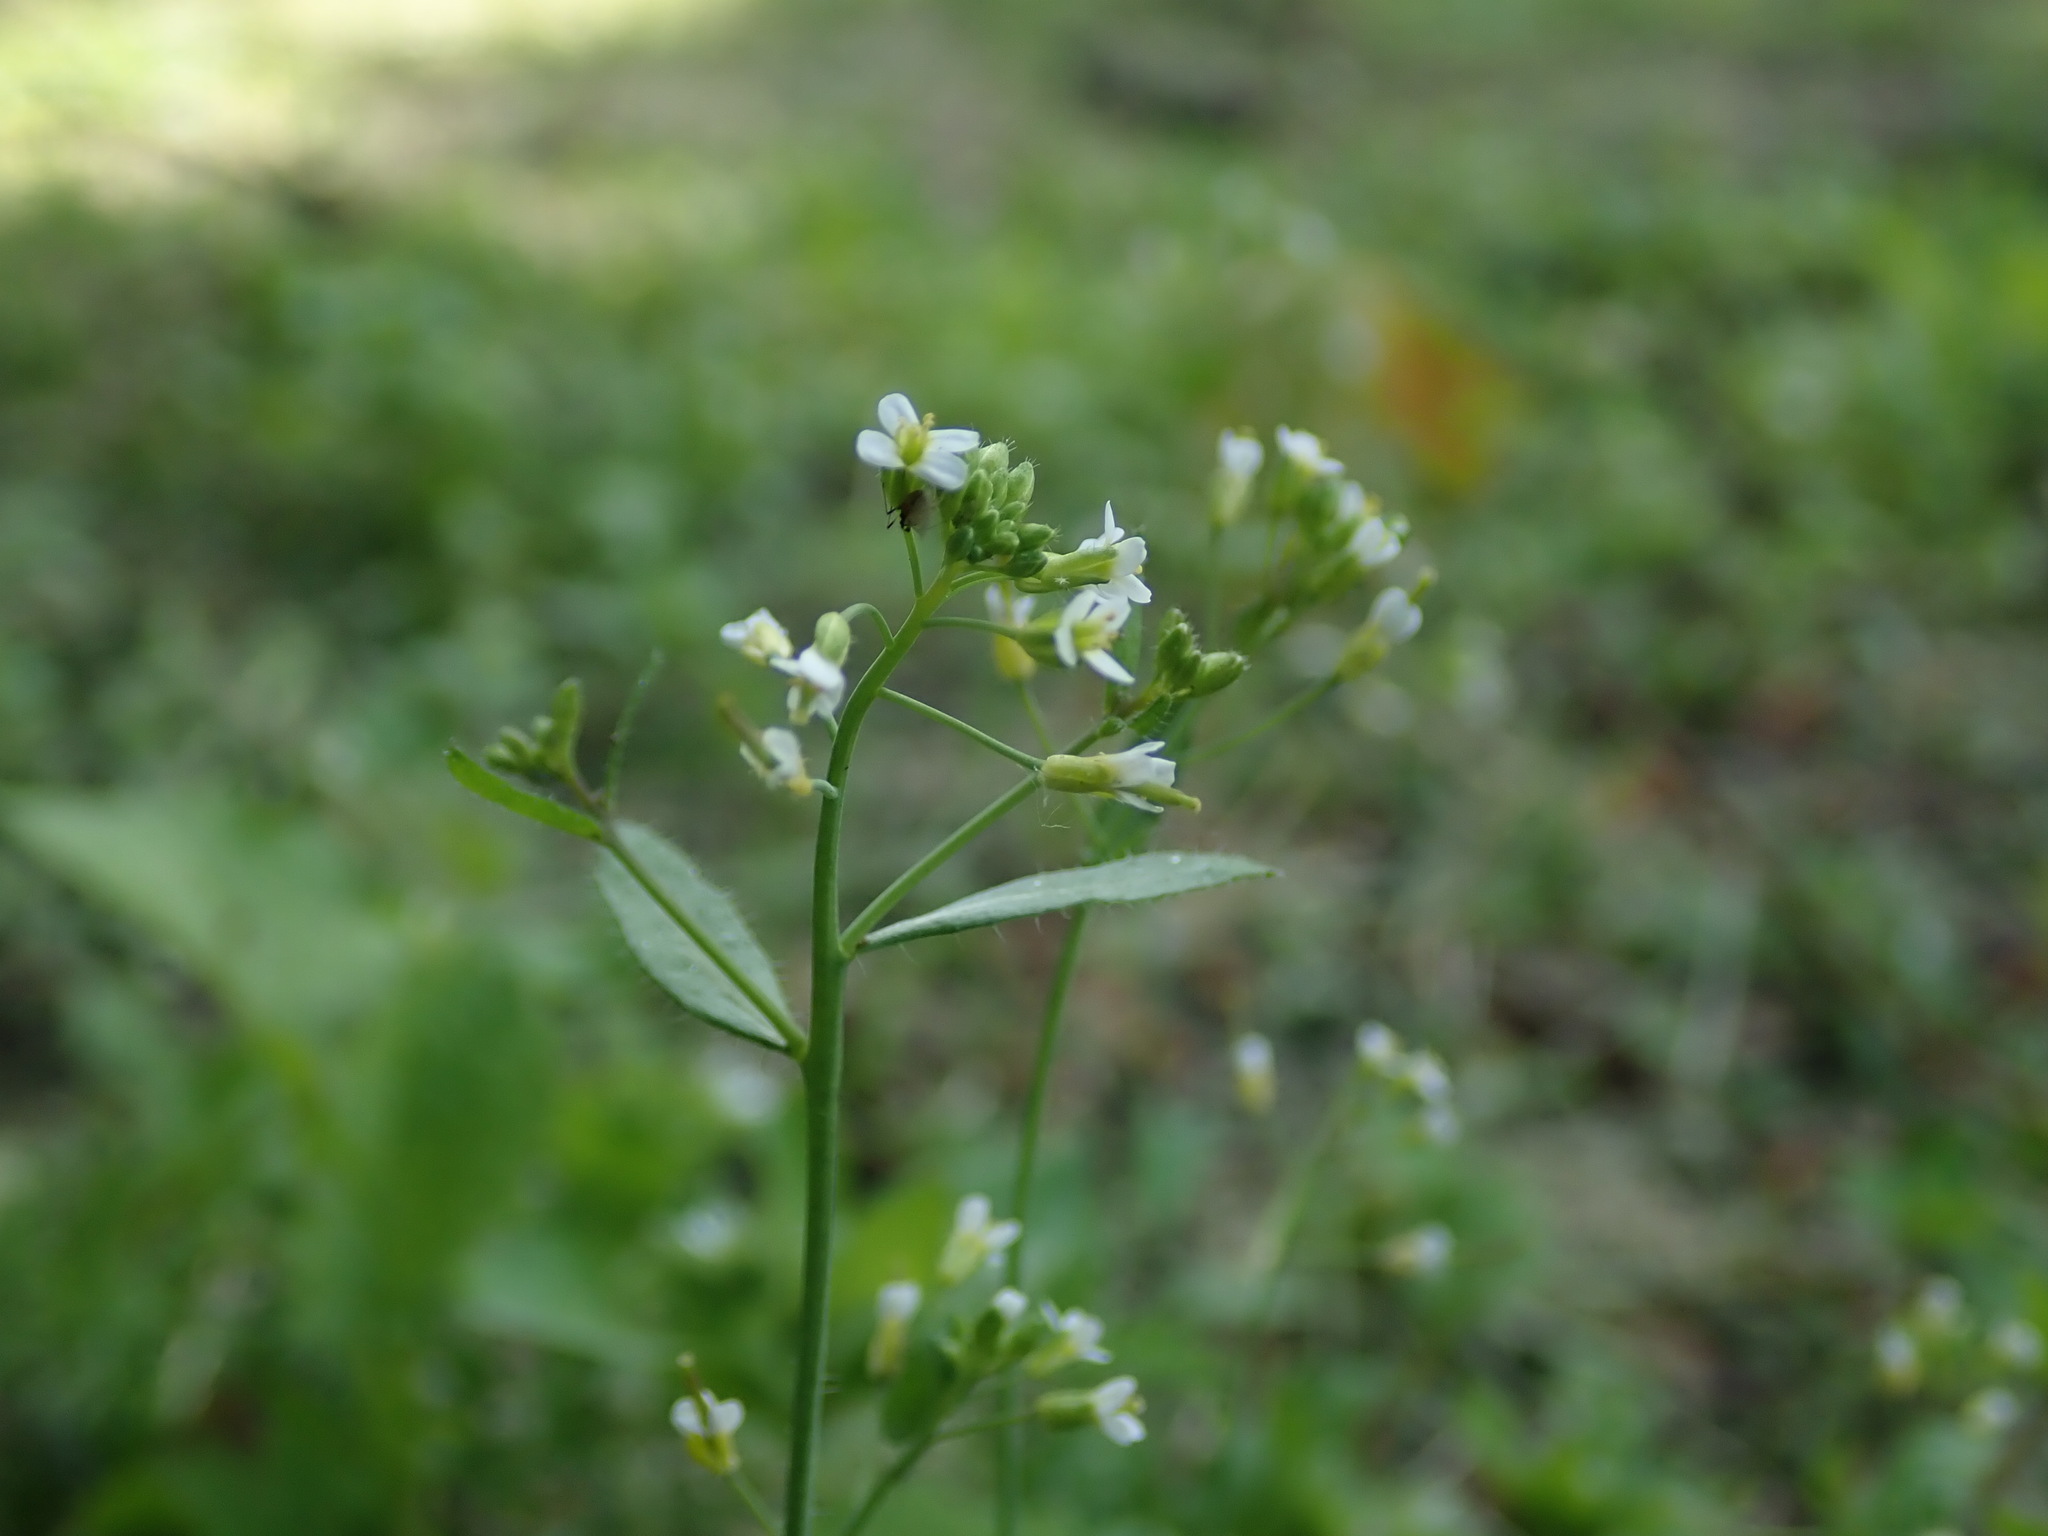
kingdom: Plantae
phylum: Tracheophyta
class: Magnoliopsida
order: Brassicales
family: Brassicaceae
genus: Arabidopsis
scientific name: Arabidopsis thaliana
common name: Thale cress
